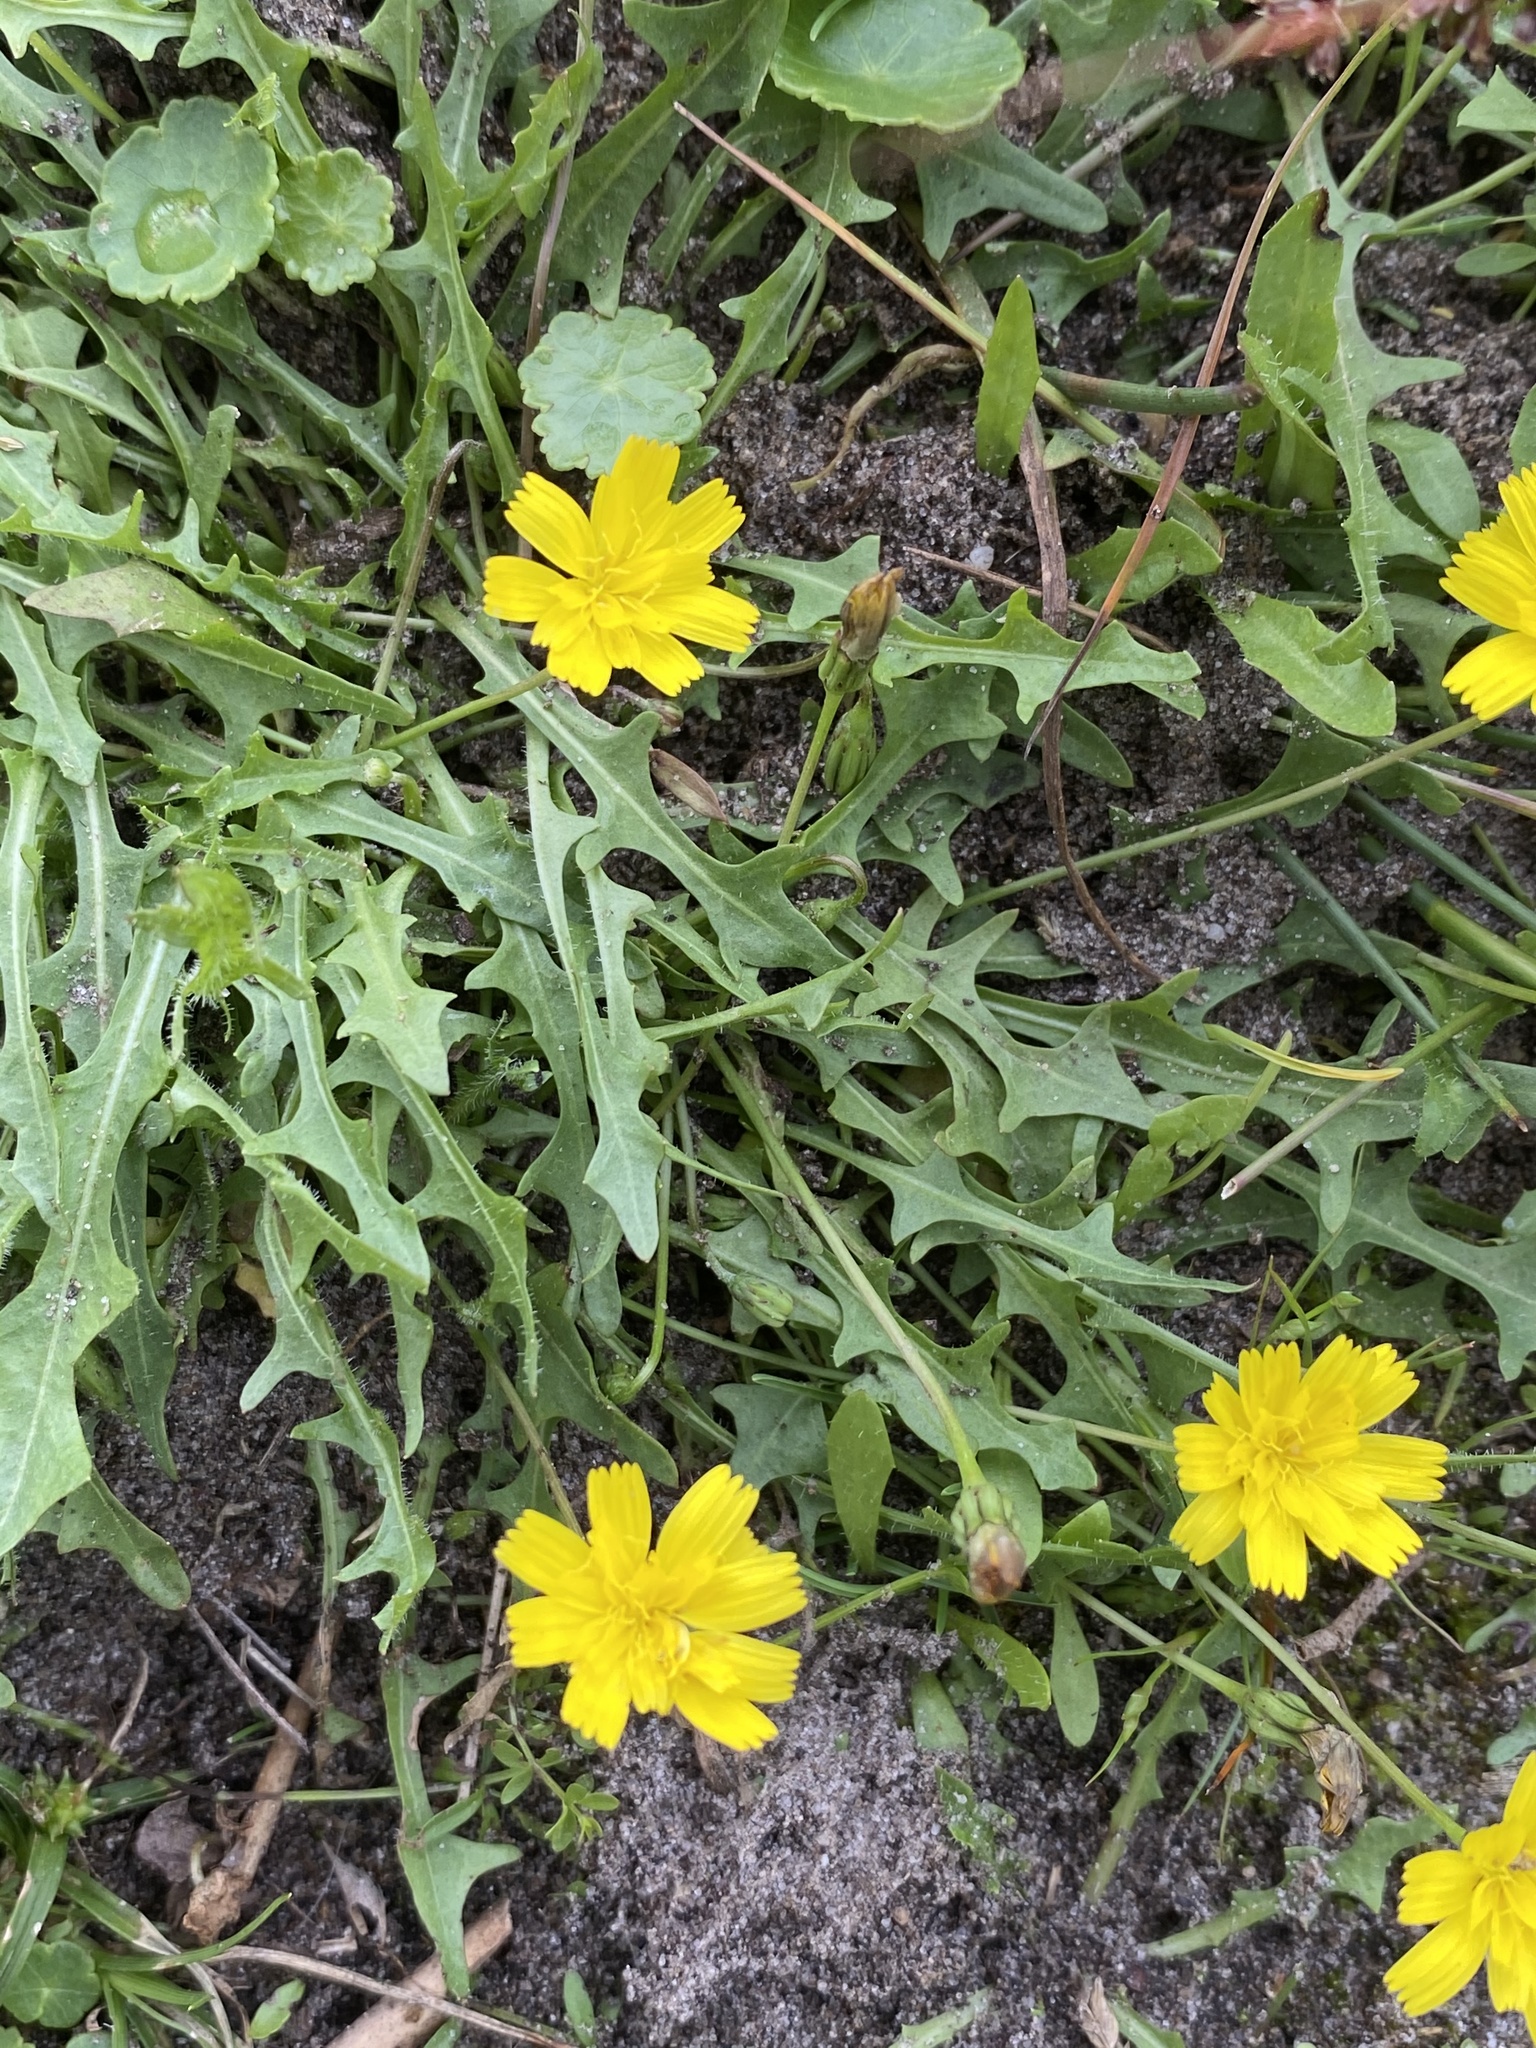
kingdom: Plantae
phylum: Tracheophyta
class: Magnoliopsida
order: Asterales
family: Asteraceae
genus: Scorzoneroides
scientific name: Scorzoneroides autumnalis
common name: Autumn hawkbit
